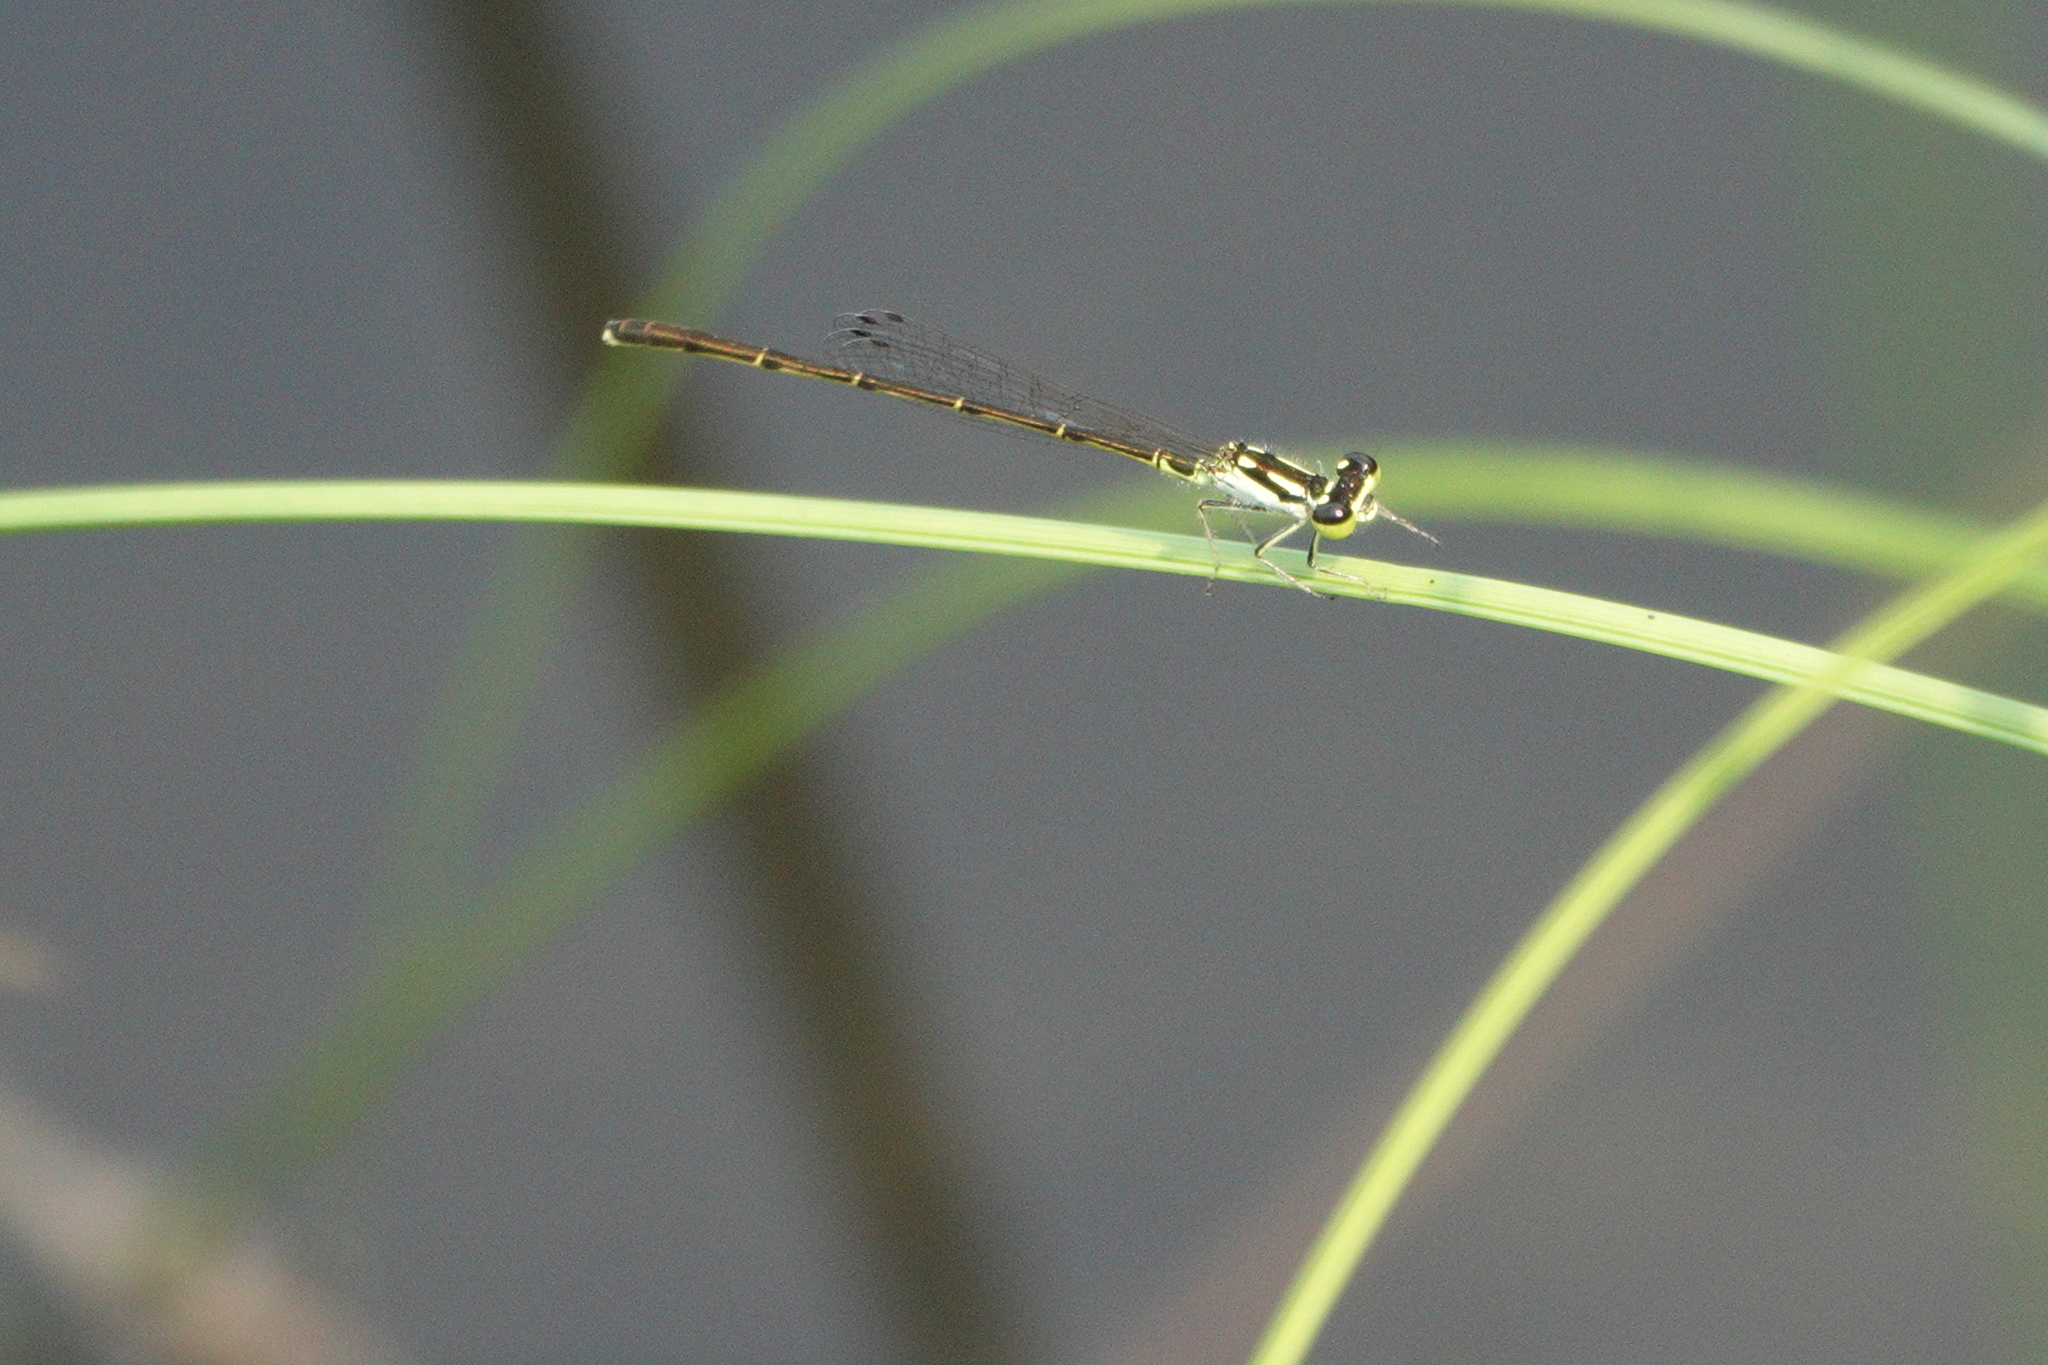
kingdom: Animalia
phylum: Arthropoda
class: Insecta
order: Odonata
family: Coenagrionidae
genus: Ischnura
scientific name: Ischnura posita
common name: Fragile forktail
